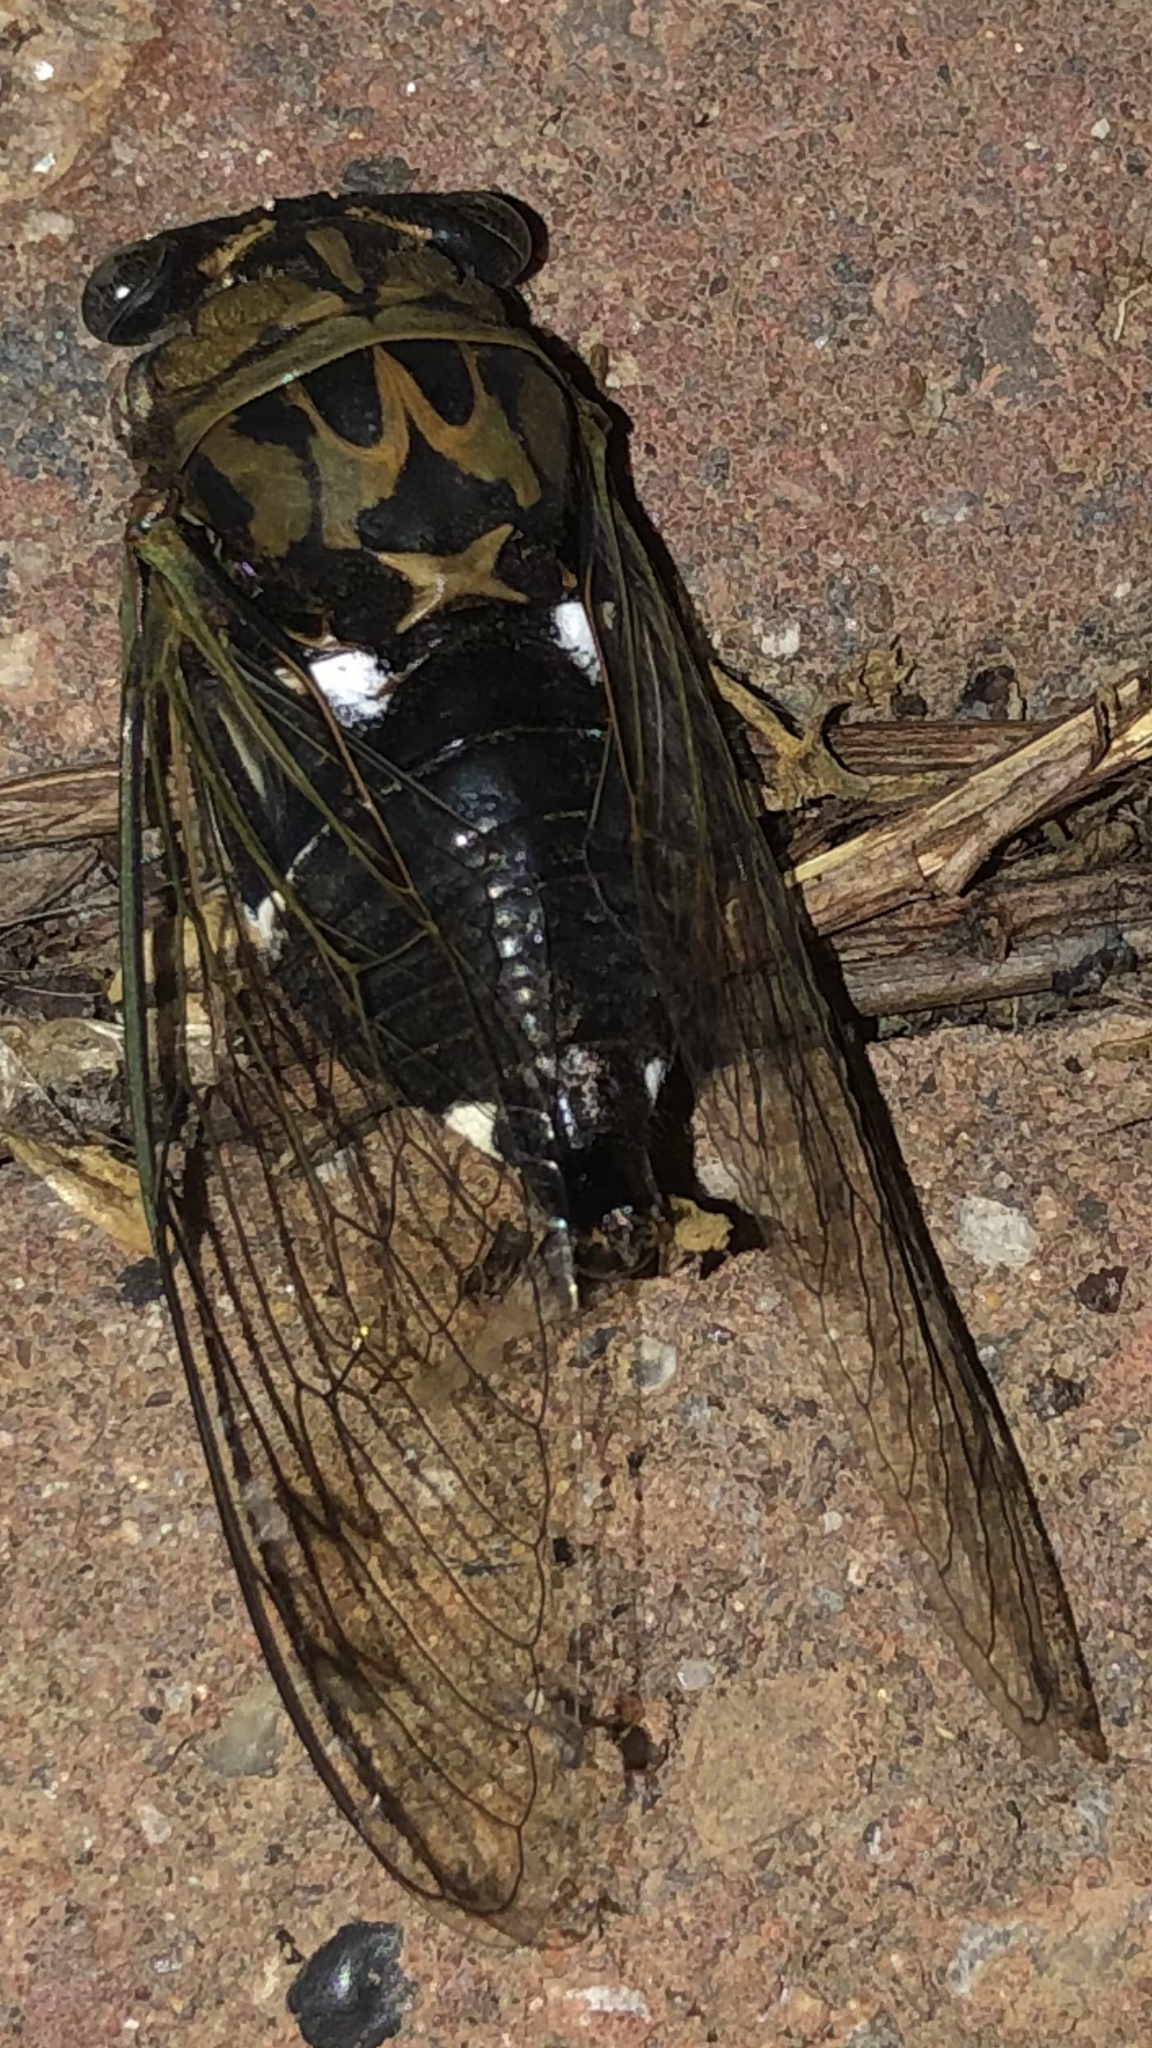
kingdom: Animalia
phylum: Arthropoda
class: Insecta
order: Hemiptera
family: Cicadidae
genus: Neotibicen
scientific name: Neotibicen pruinosus
